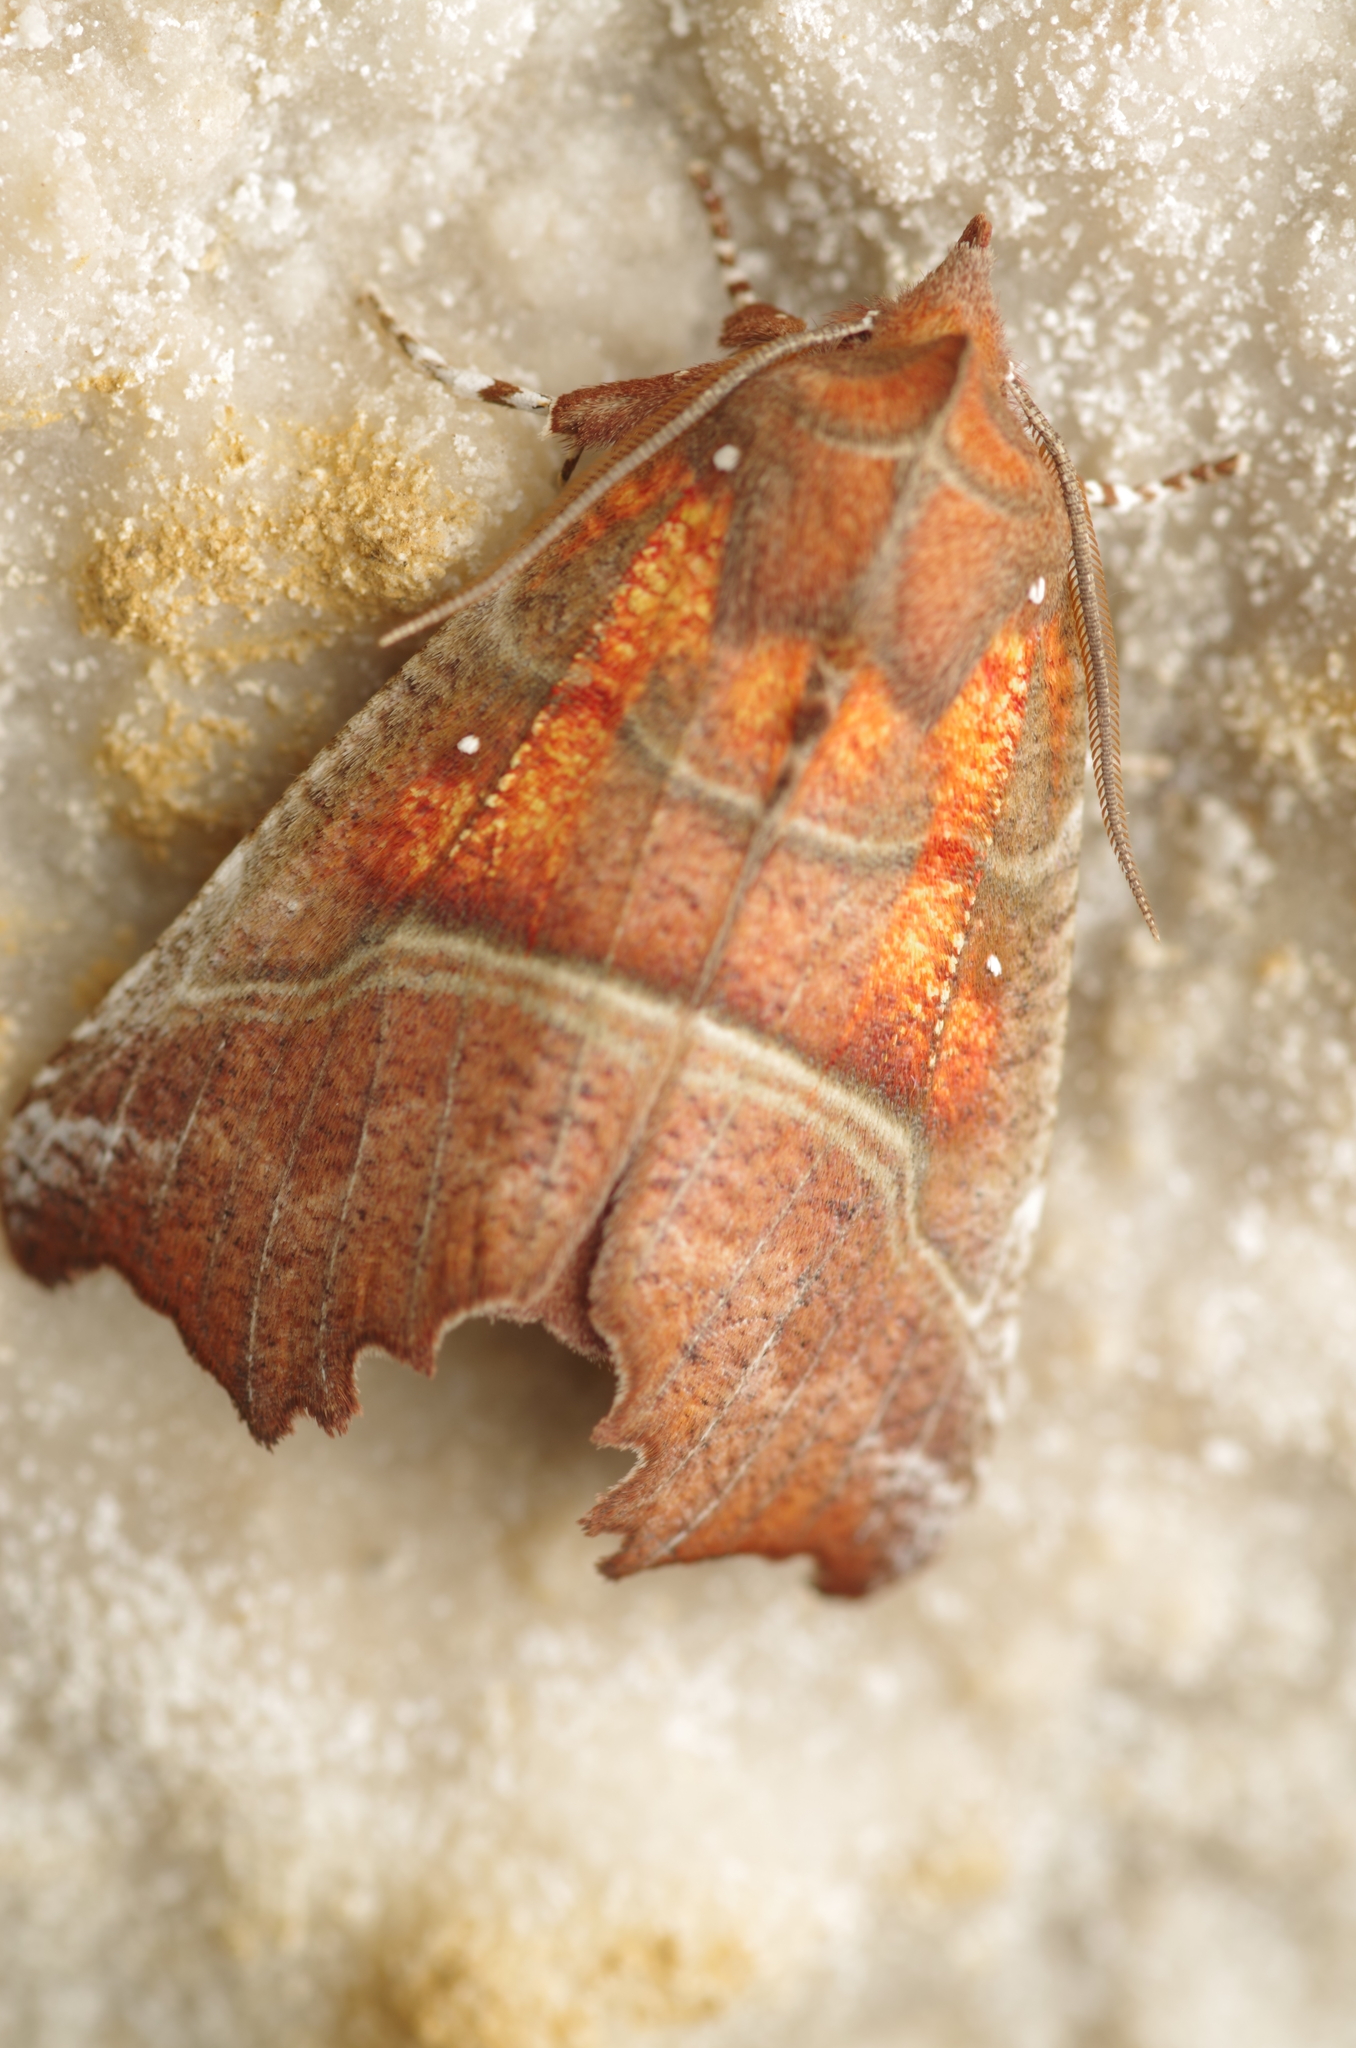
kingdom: Animalia
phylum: Arthropoda
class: Insecta
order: Lepidoptera
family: Erebidae
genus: Scoliopteryx
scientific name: Scoliopteryx libatrix
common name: Herald
